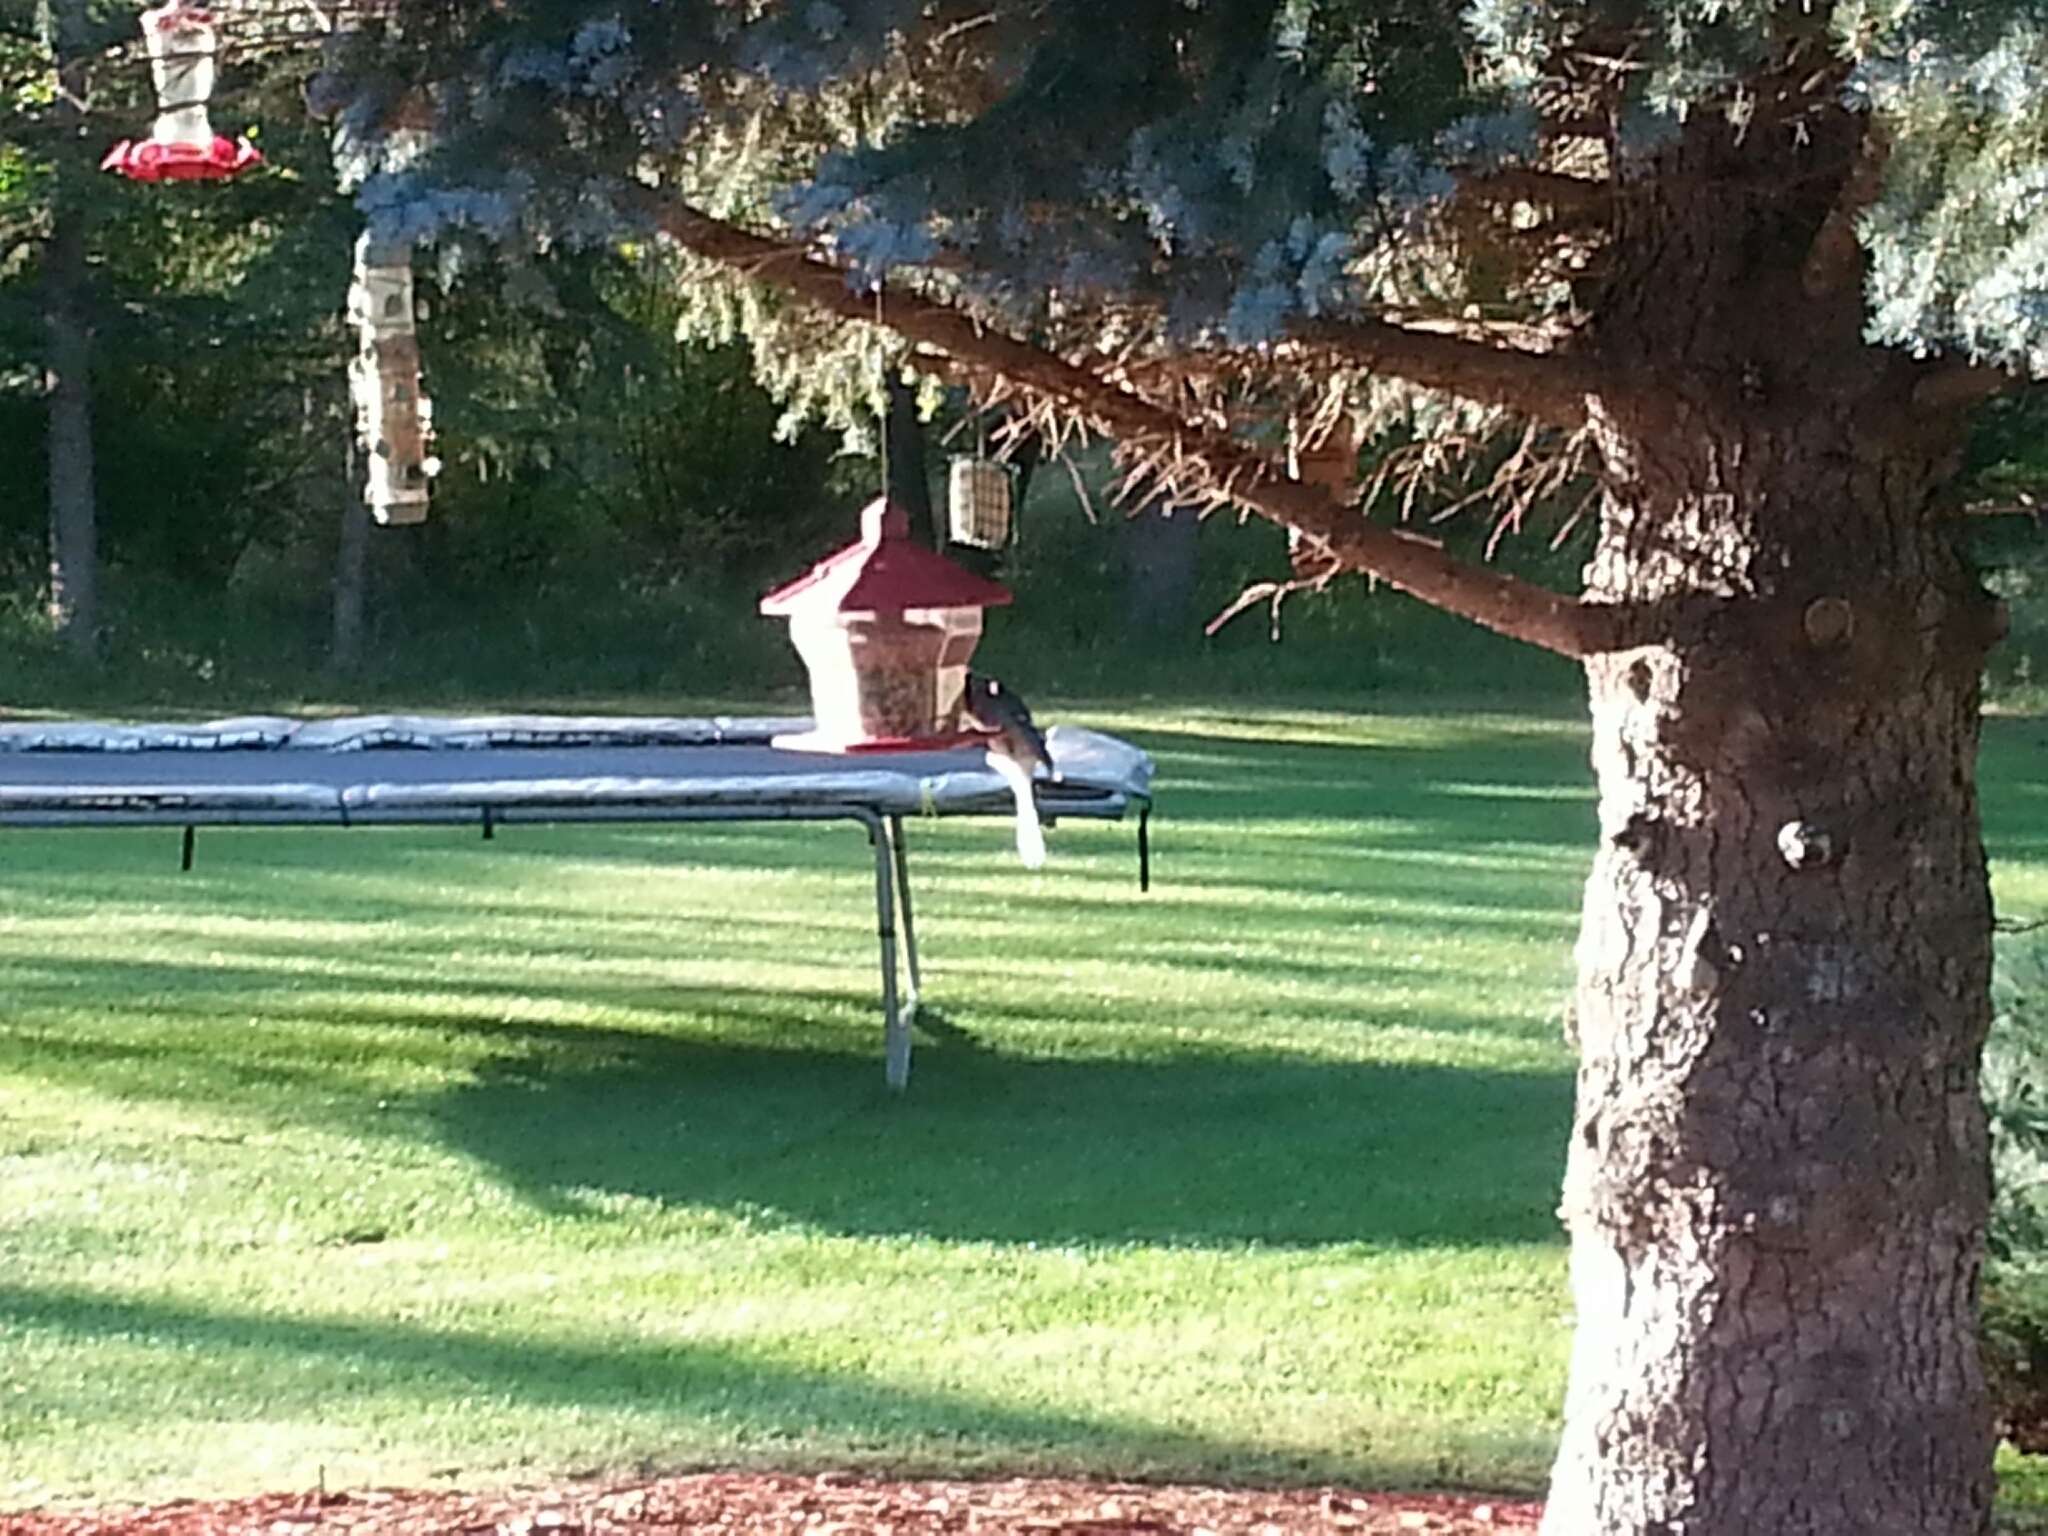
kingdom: Animalia
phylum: Chordata
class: Aves
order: Passeriformes
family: Corvidae
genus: Cyanocitta
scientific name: Cyanocitta cristata
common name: Blue jay
